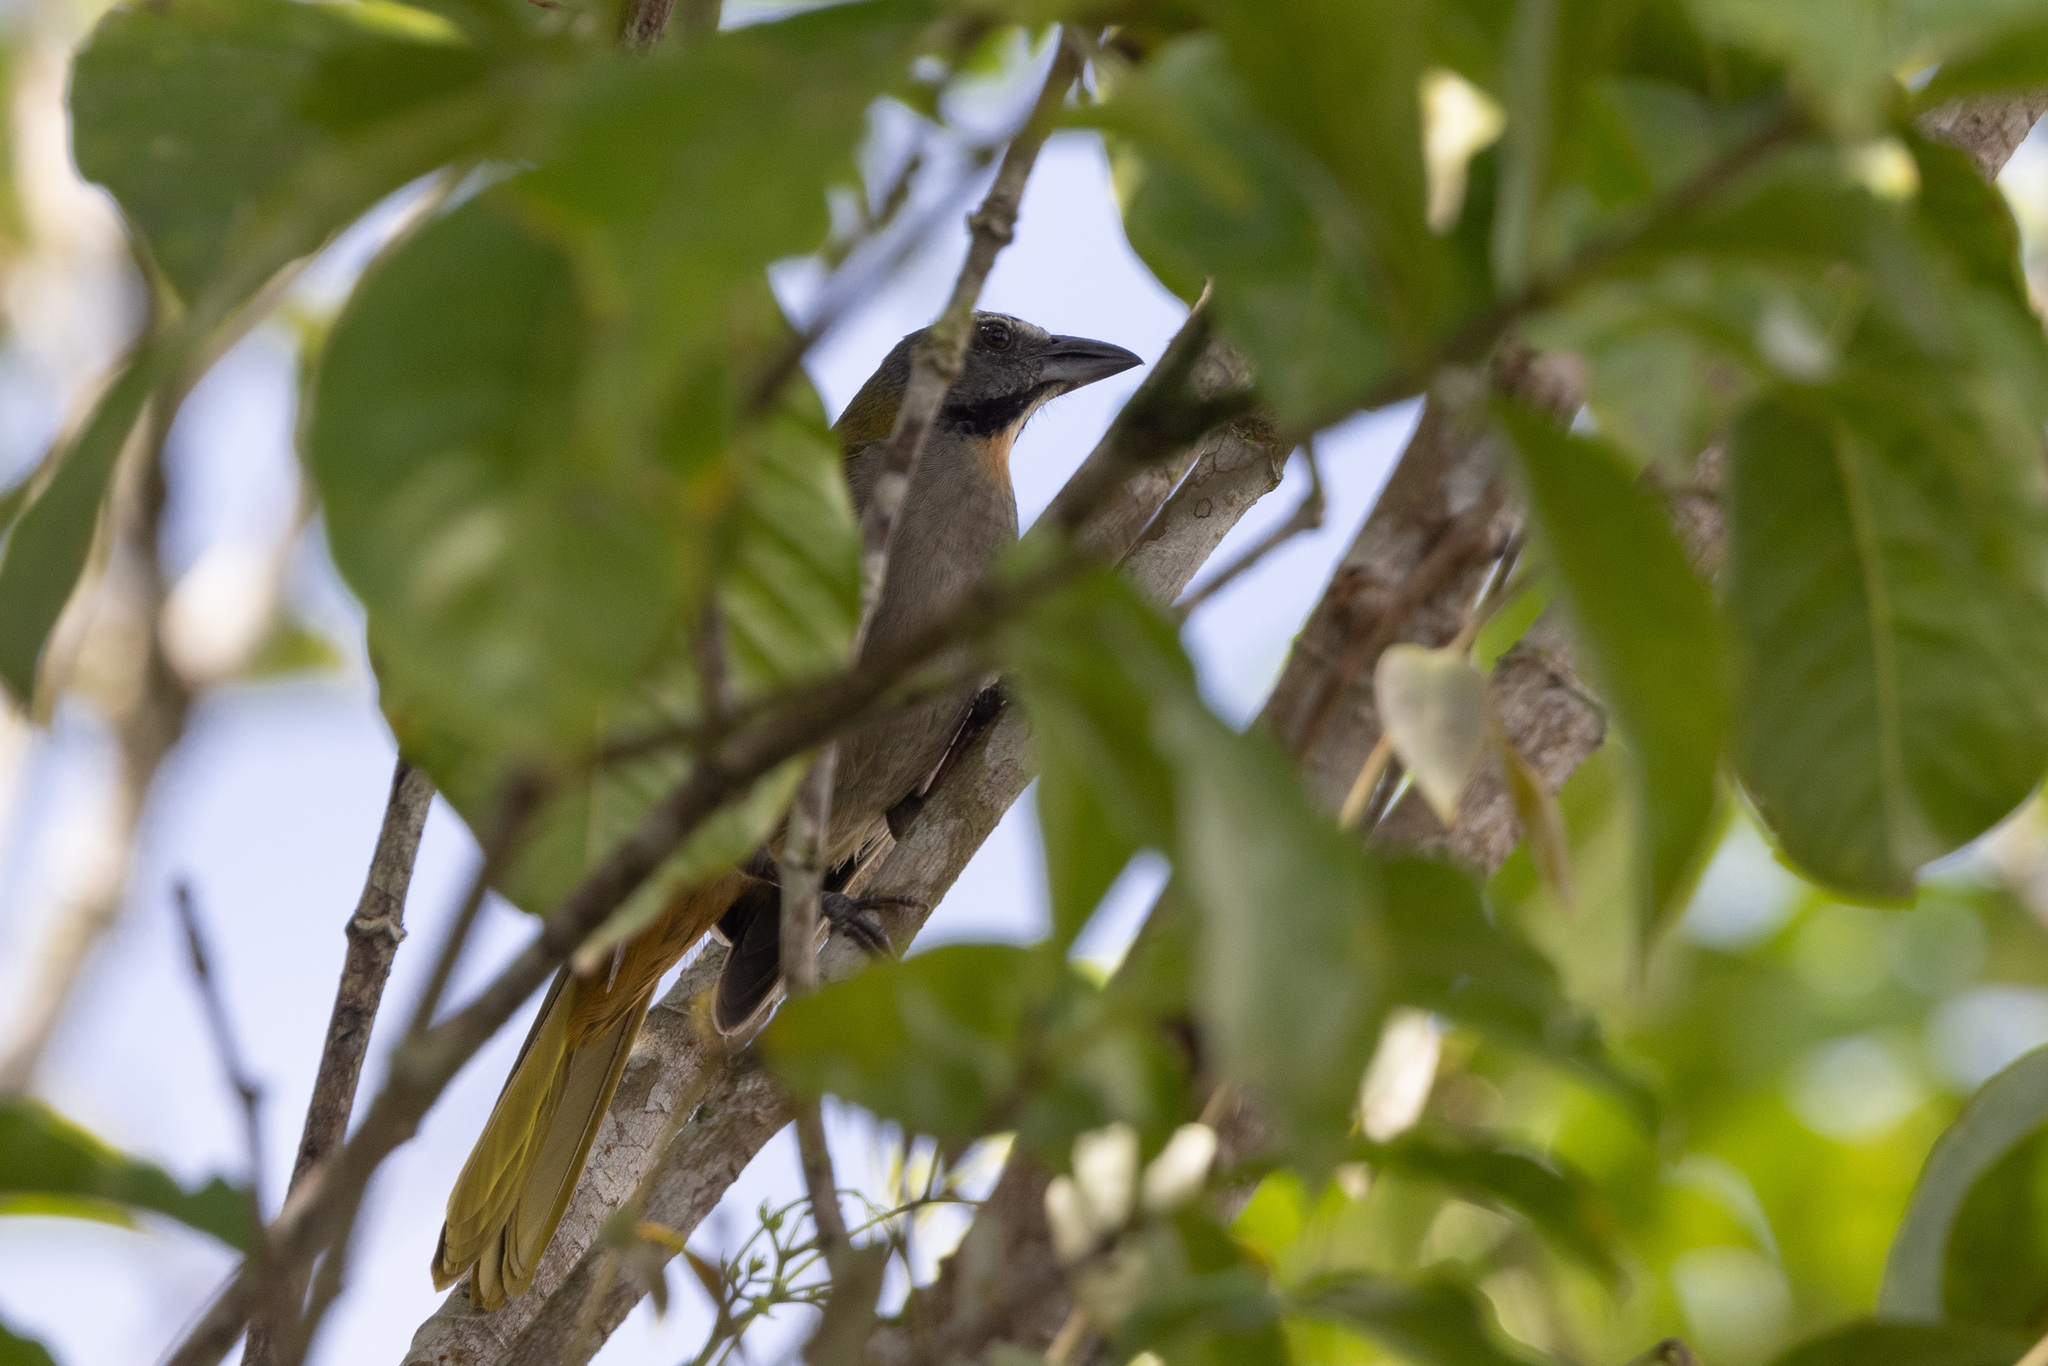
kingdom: Animalia
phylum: Chordata
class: Aves
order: Passeriformes
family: Thraupidae
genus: Saltator
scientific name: Saltator maximus
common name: Buff-throated saltator
